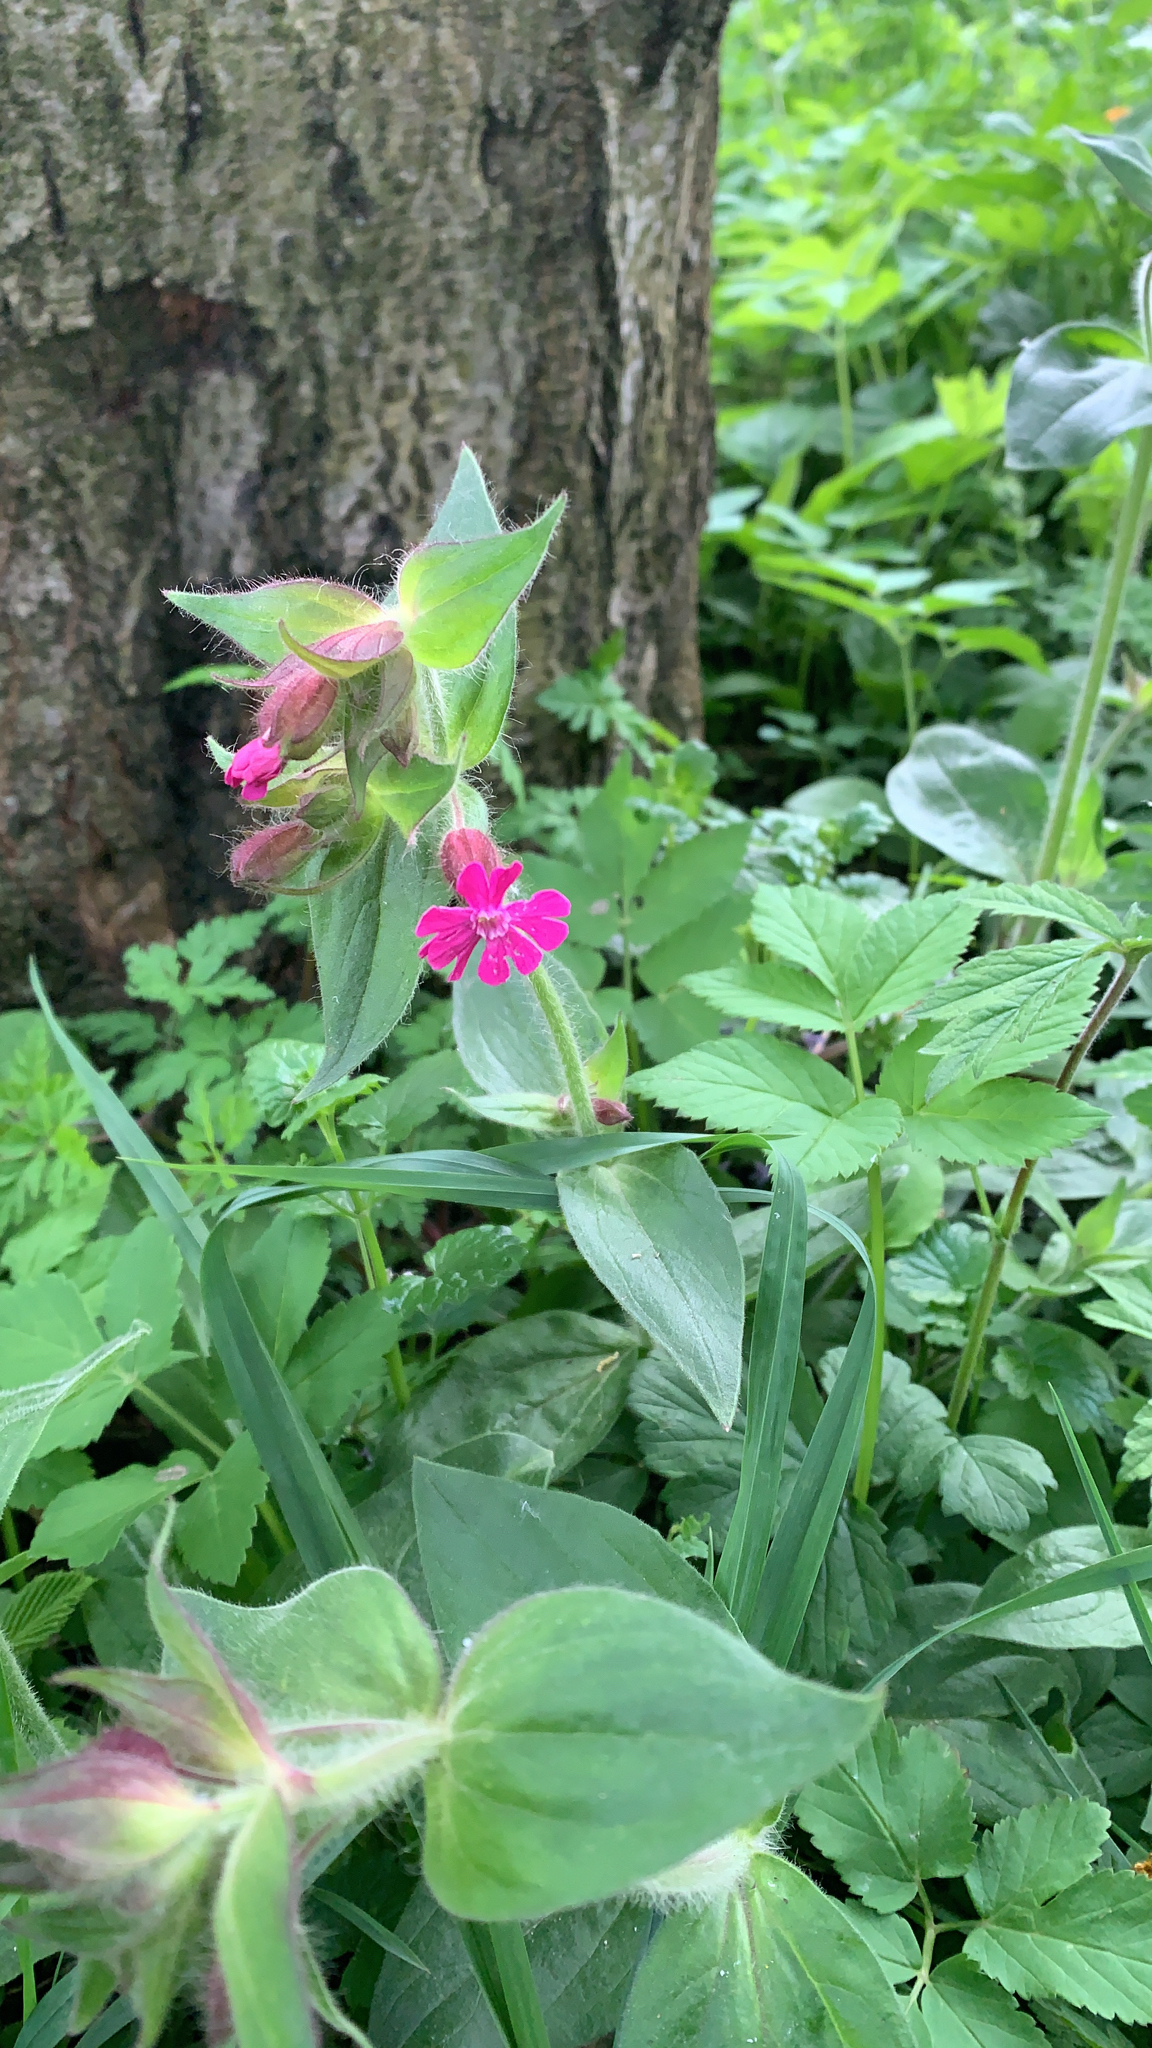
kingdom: Plantae
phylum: Tracheophyta
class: Magnoliopsida
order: Caryophyllales
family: Caryophyllaceae
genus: Silene
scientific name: Silene dioica
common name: Red campion
